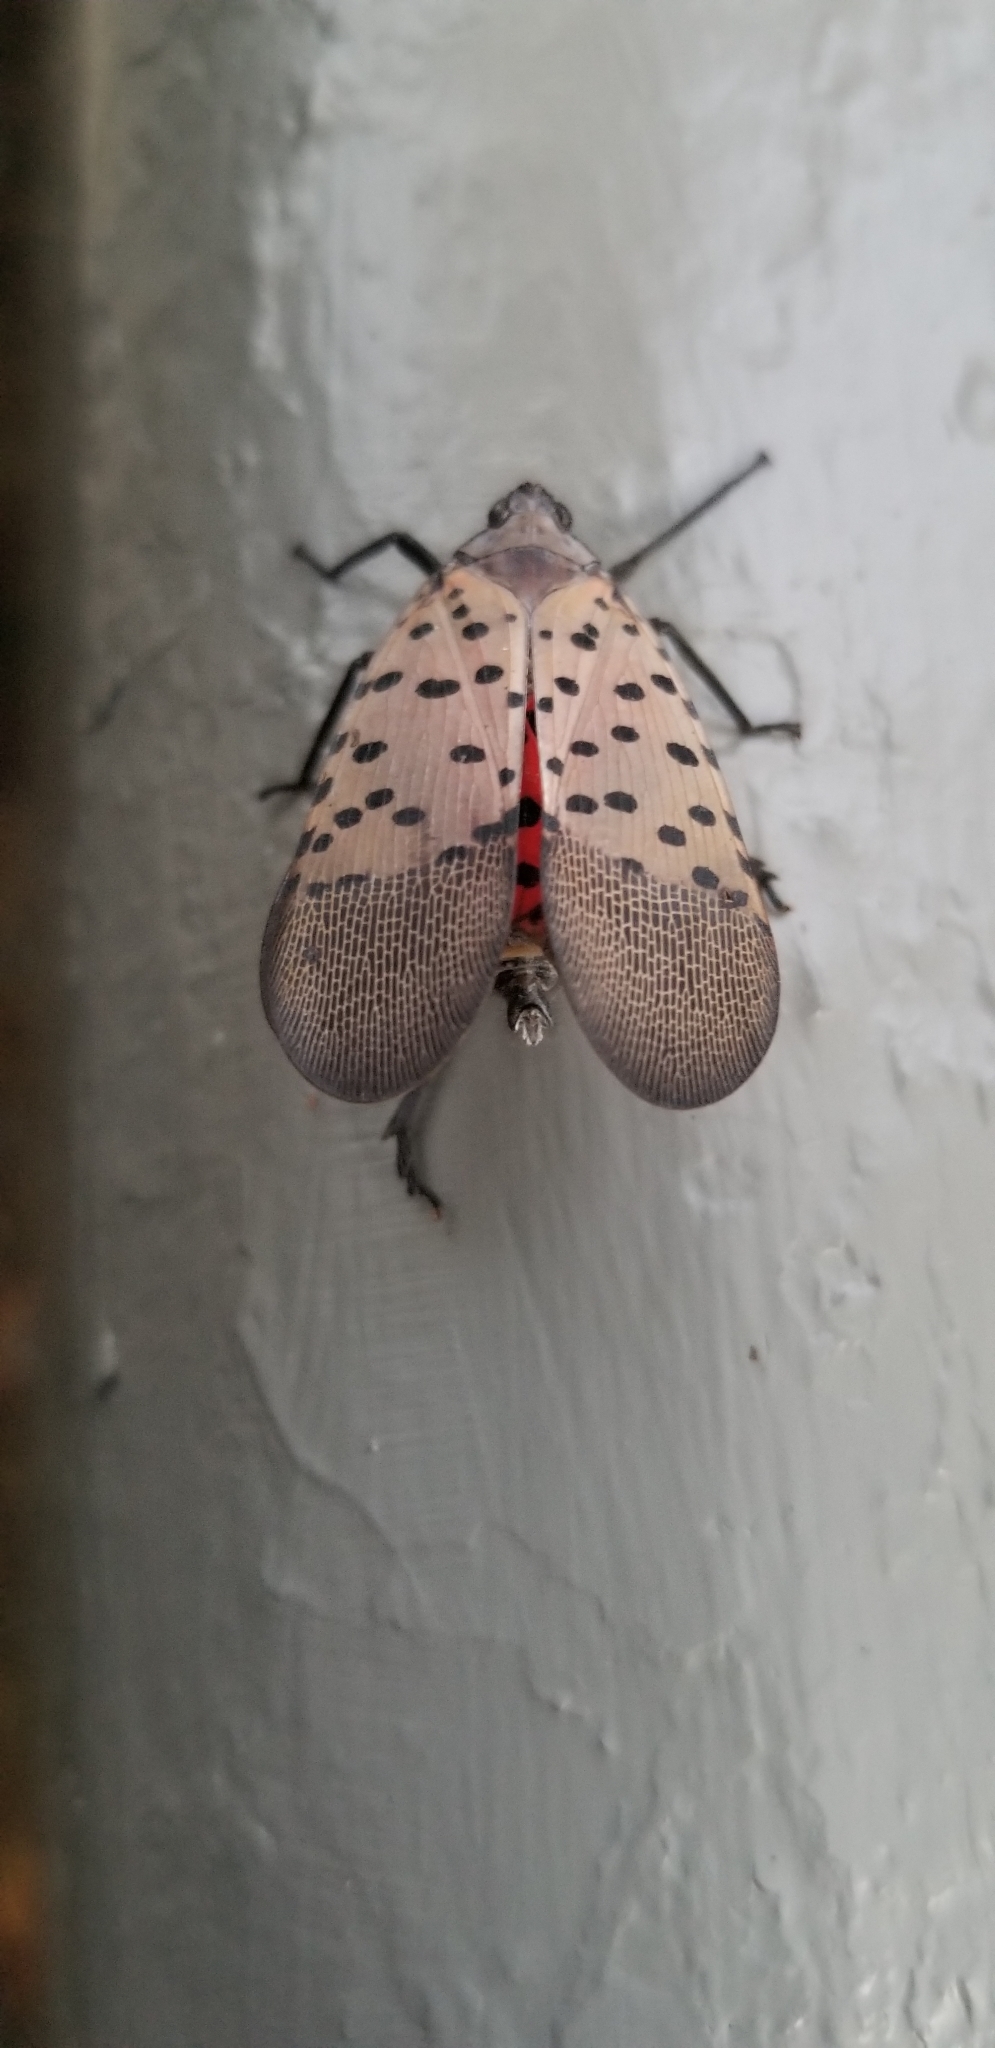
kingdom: Animalia
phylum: Arthropoda
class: Insecta
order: Hemiptera
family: Fulgoridae
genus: Lycorma
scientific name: Lycorma delicatula
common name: Spotted lanternfly
